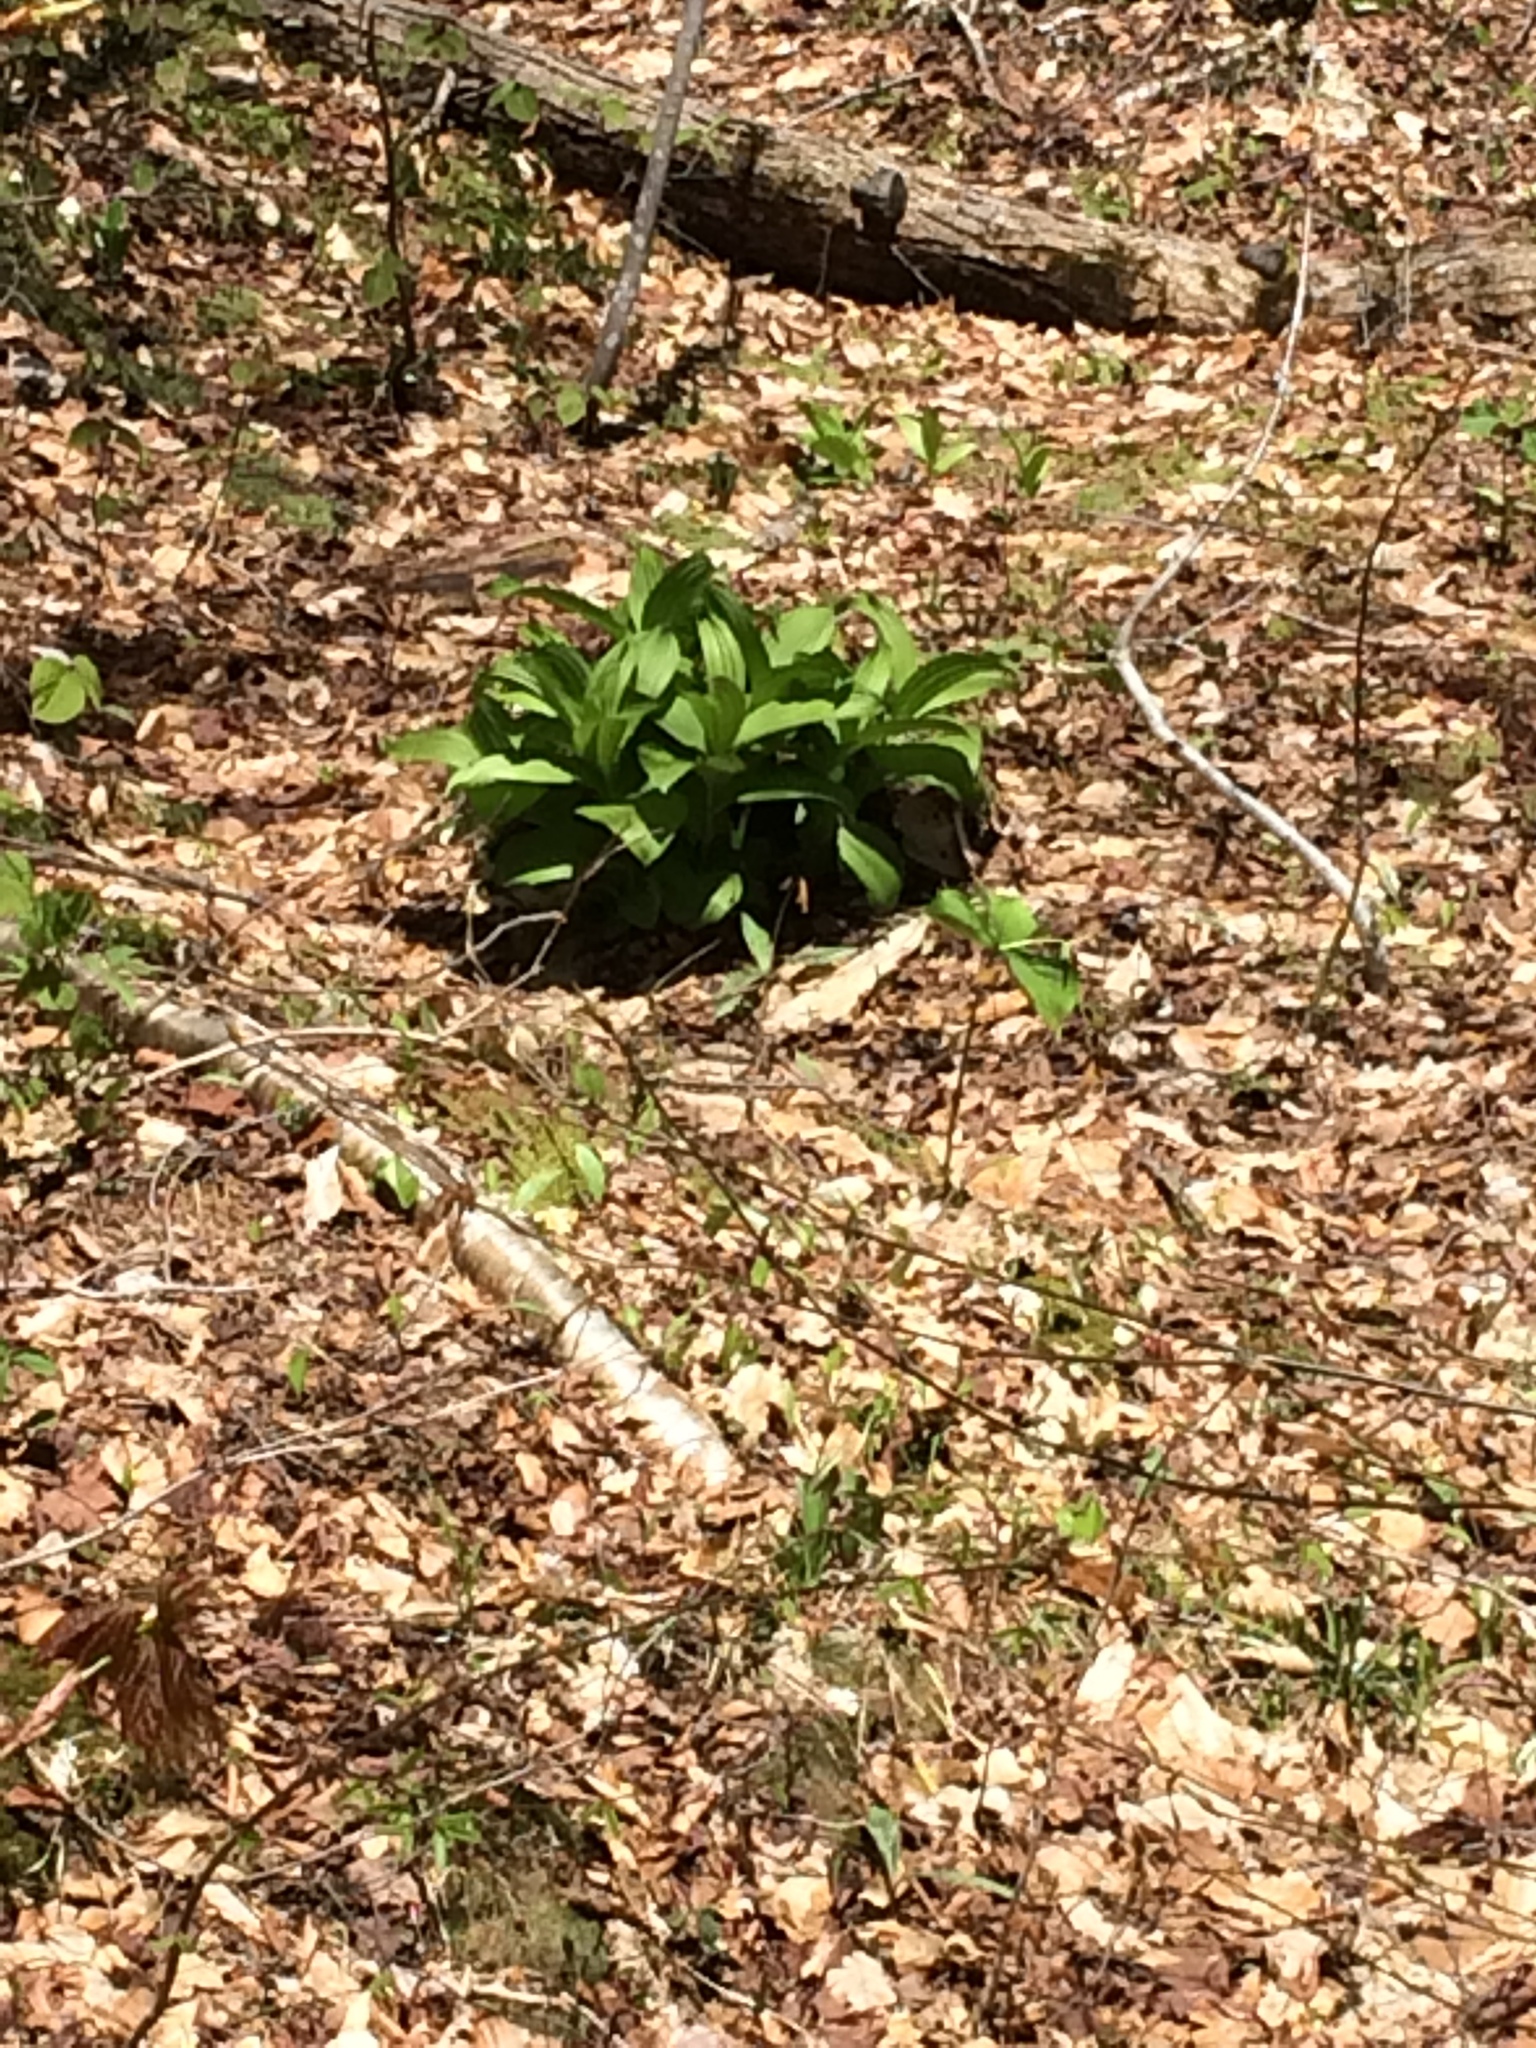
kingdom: Plantae
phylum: Tracheophyta
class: Liliopsida
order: Liliales
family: Melanthiaceae
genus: Veratrum
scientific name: Veratrum viride
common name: American false hellebore
